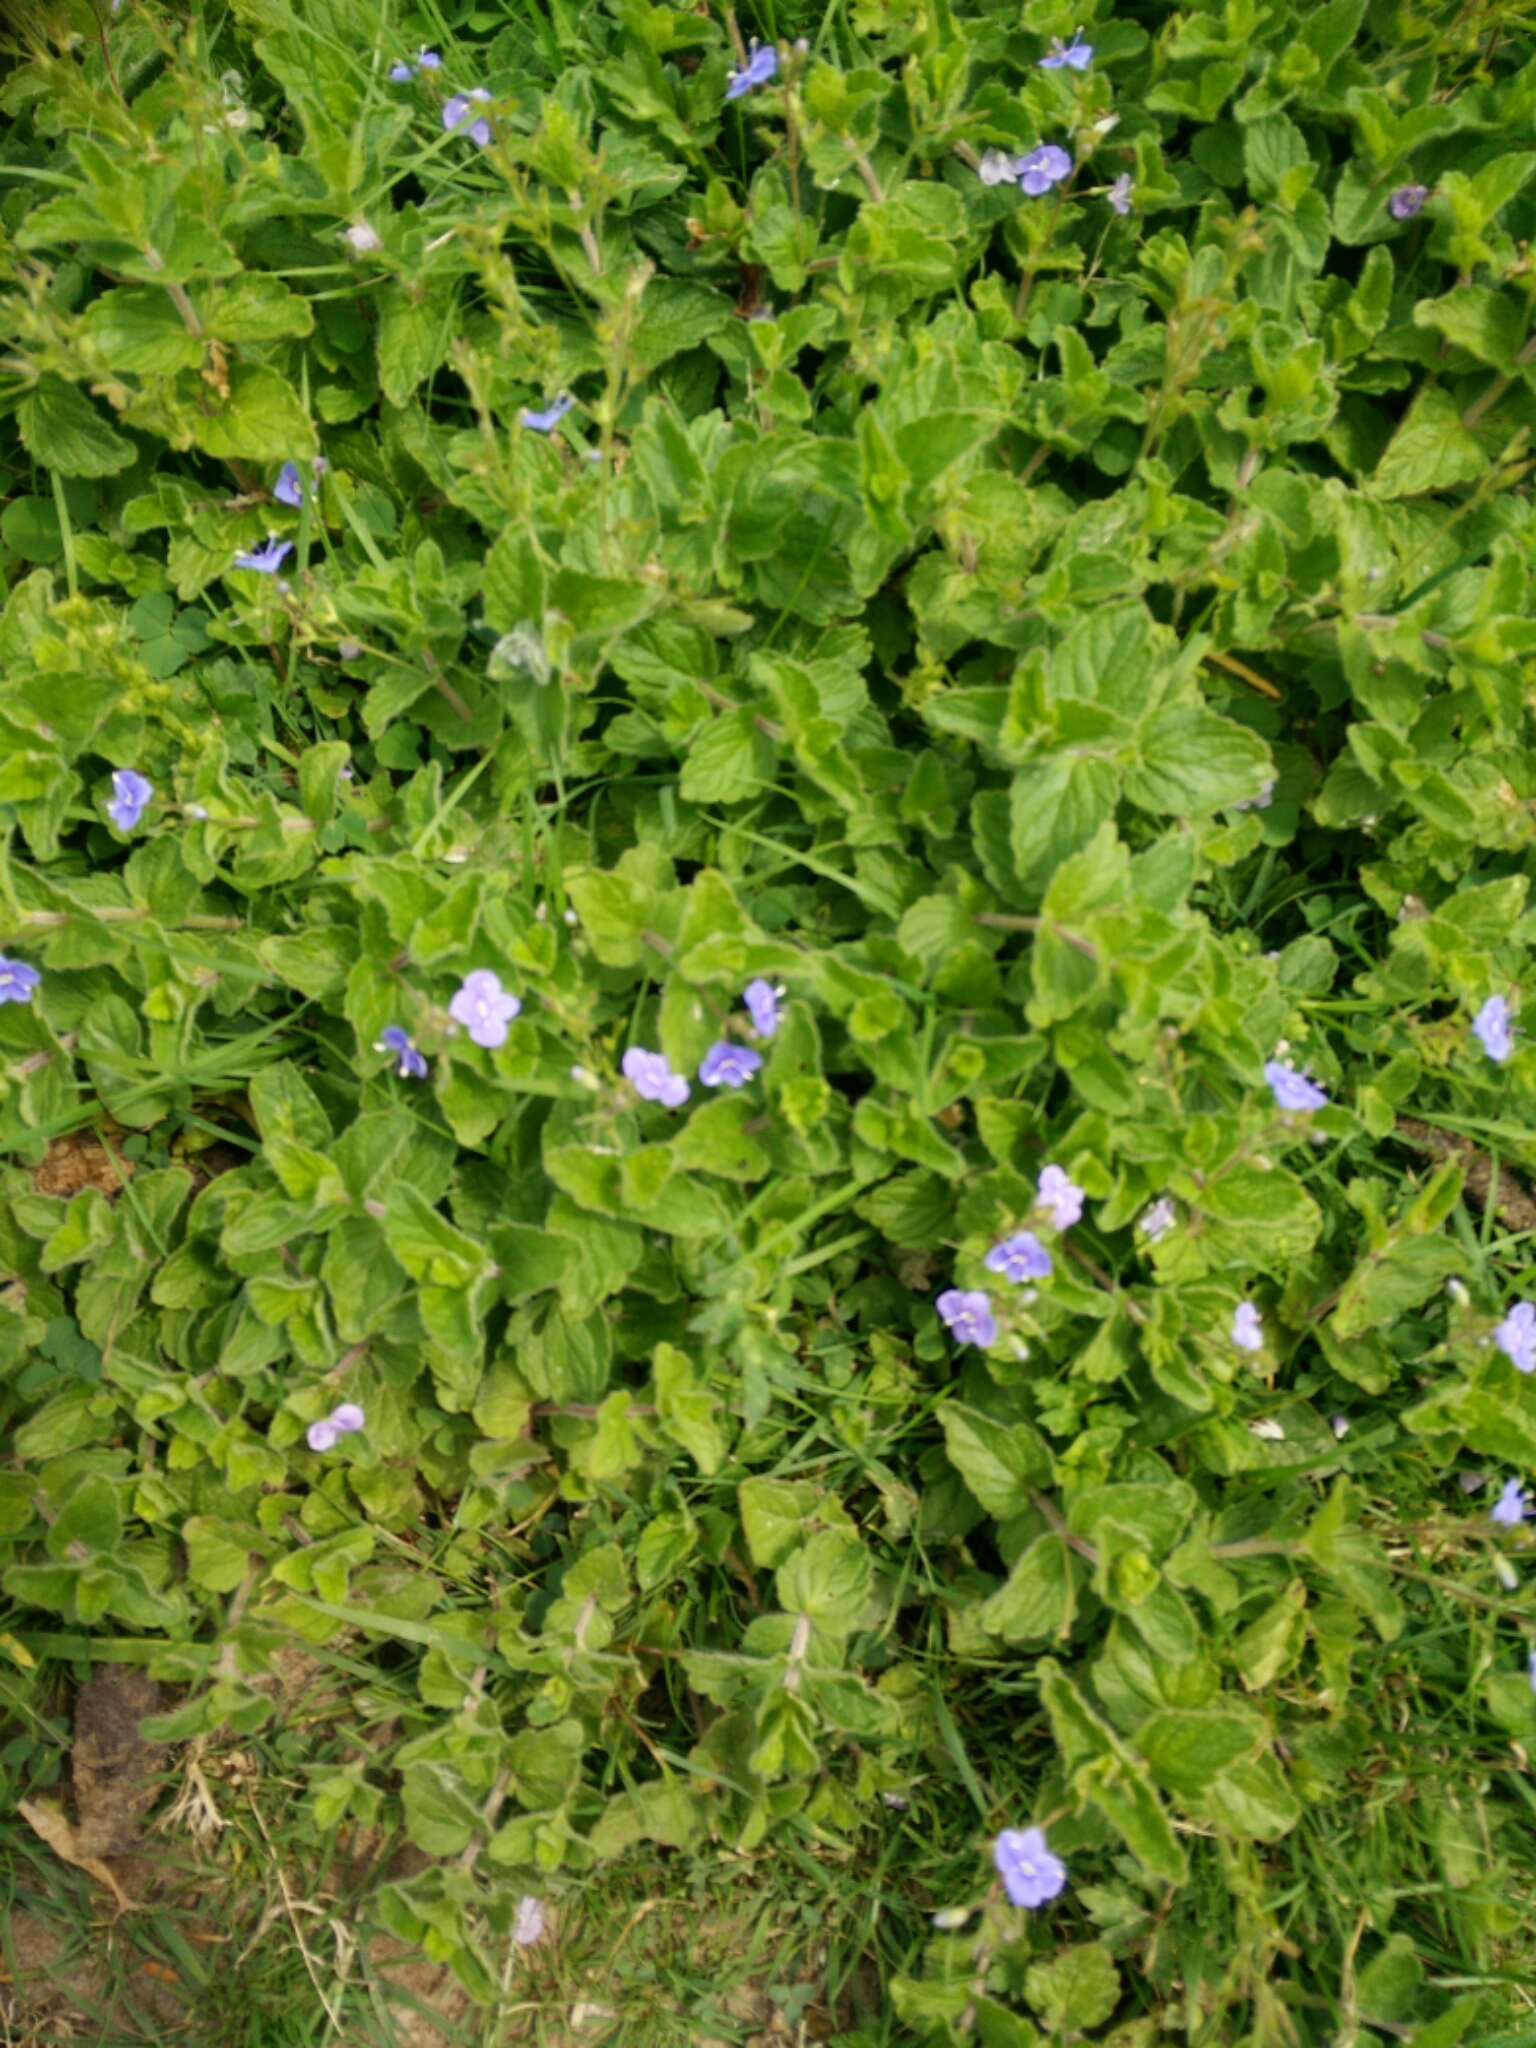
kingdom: Plantae
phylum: Tracheophyta
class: Magnoliopsida
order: Lamiales
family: Plantaginaceae
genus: Veronica
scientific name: Veronica chamaedrys
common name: Germander speedwell
